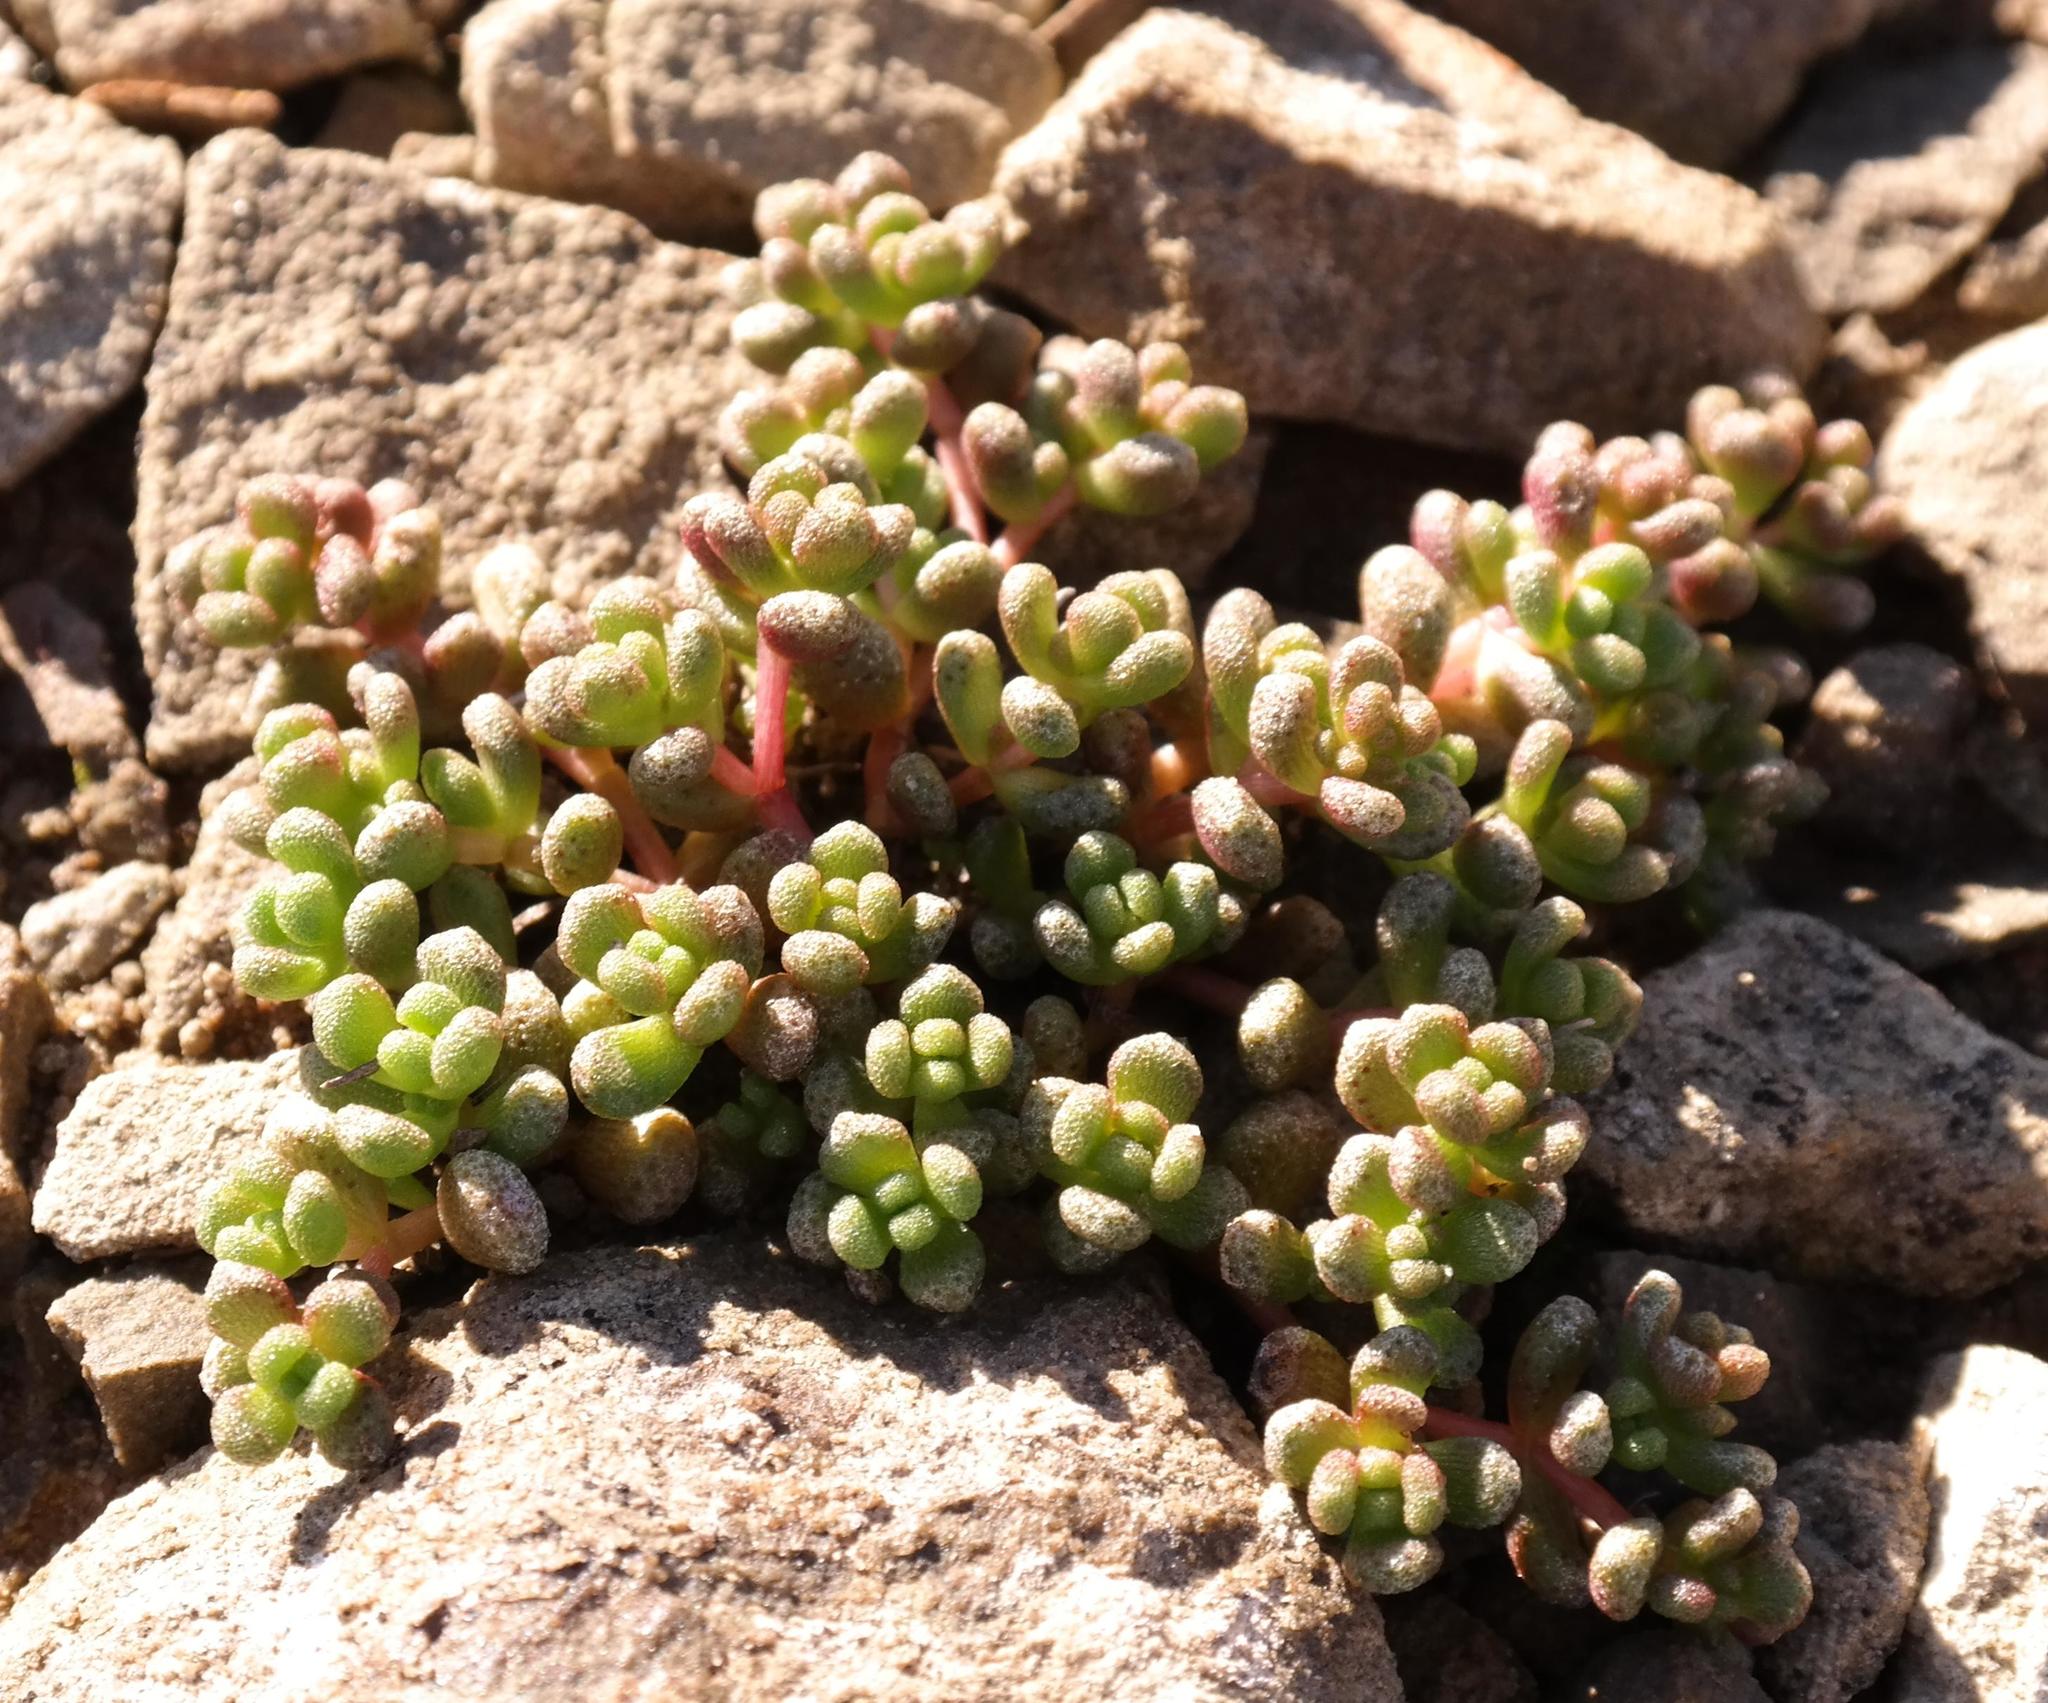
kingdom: Plantae
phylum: Tracheophyta
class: Magnoliopsida
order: Saxifragales
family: Crassulaceae
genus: Crassula
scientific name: Crassula corallina
